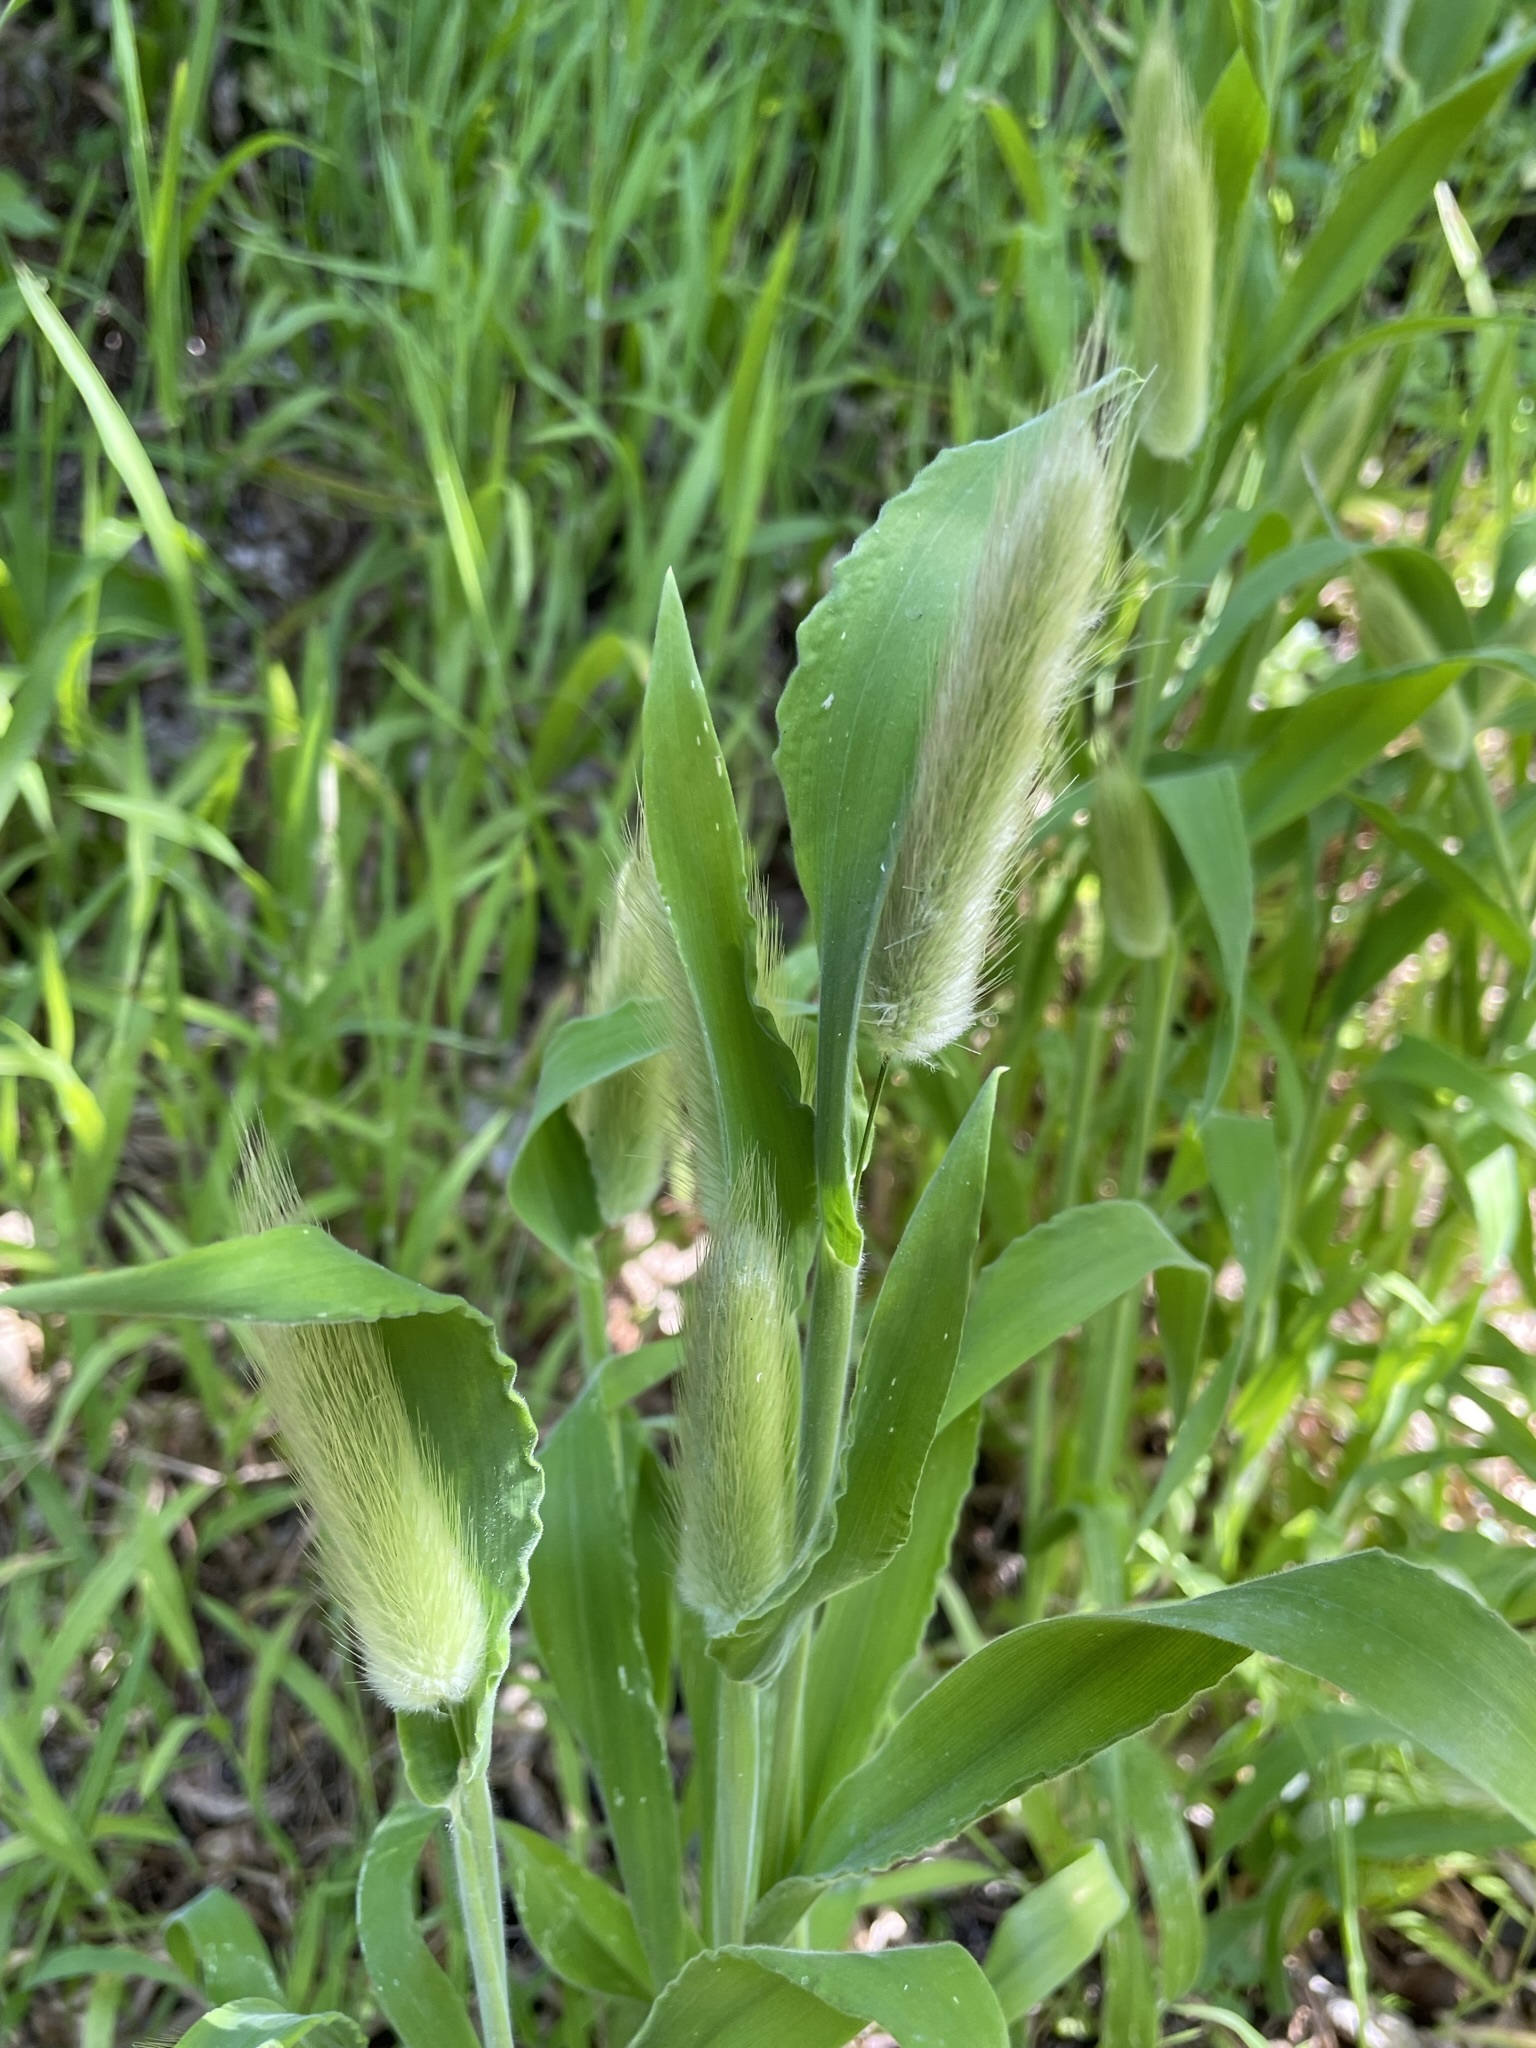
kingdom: Plantae
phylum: Tracheophyta
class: Liliopsida
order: Poales
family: Poaceae
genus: Lagurus
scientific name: Lagurus ovatus
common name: Hare's-tail
